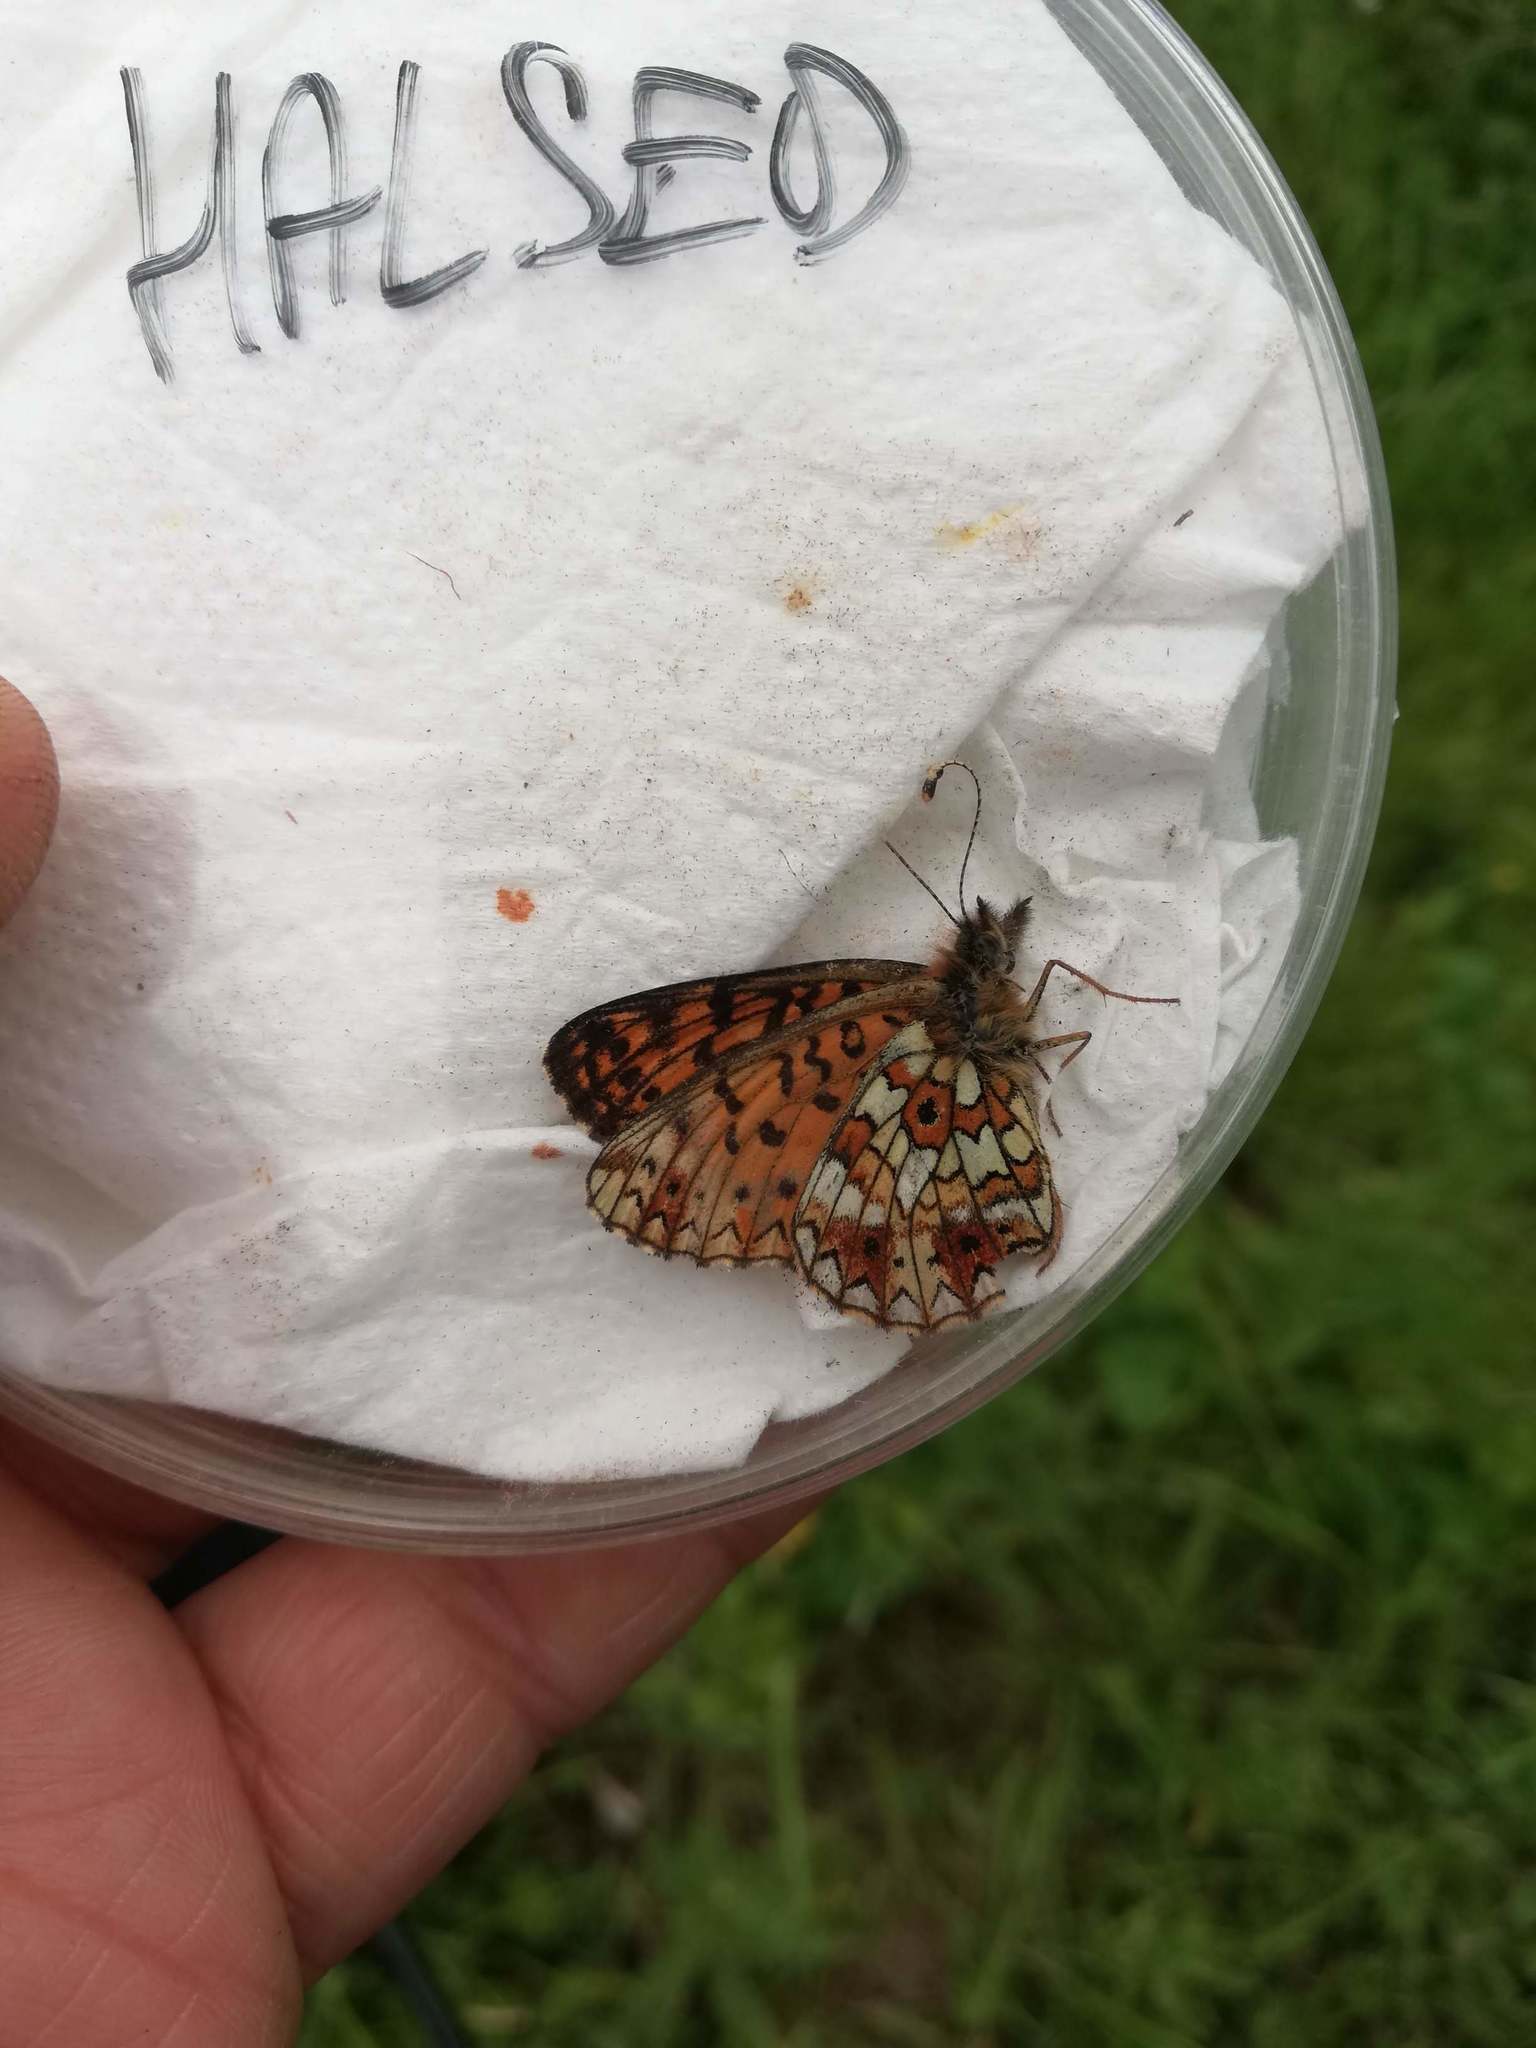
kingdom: Animalia
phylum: Arthropoda
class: Insecta
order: Lepidoptera
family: Nymphalidae
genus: Boloria
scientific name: Boloria selene
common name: Small pearl-bordered fritillary
